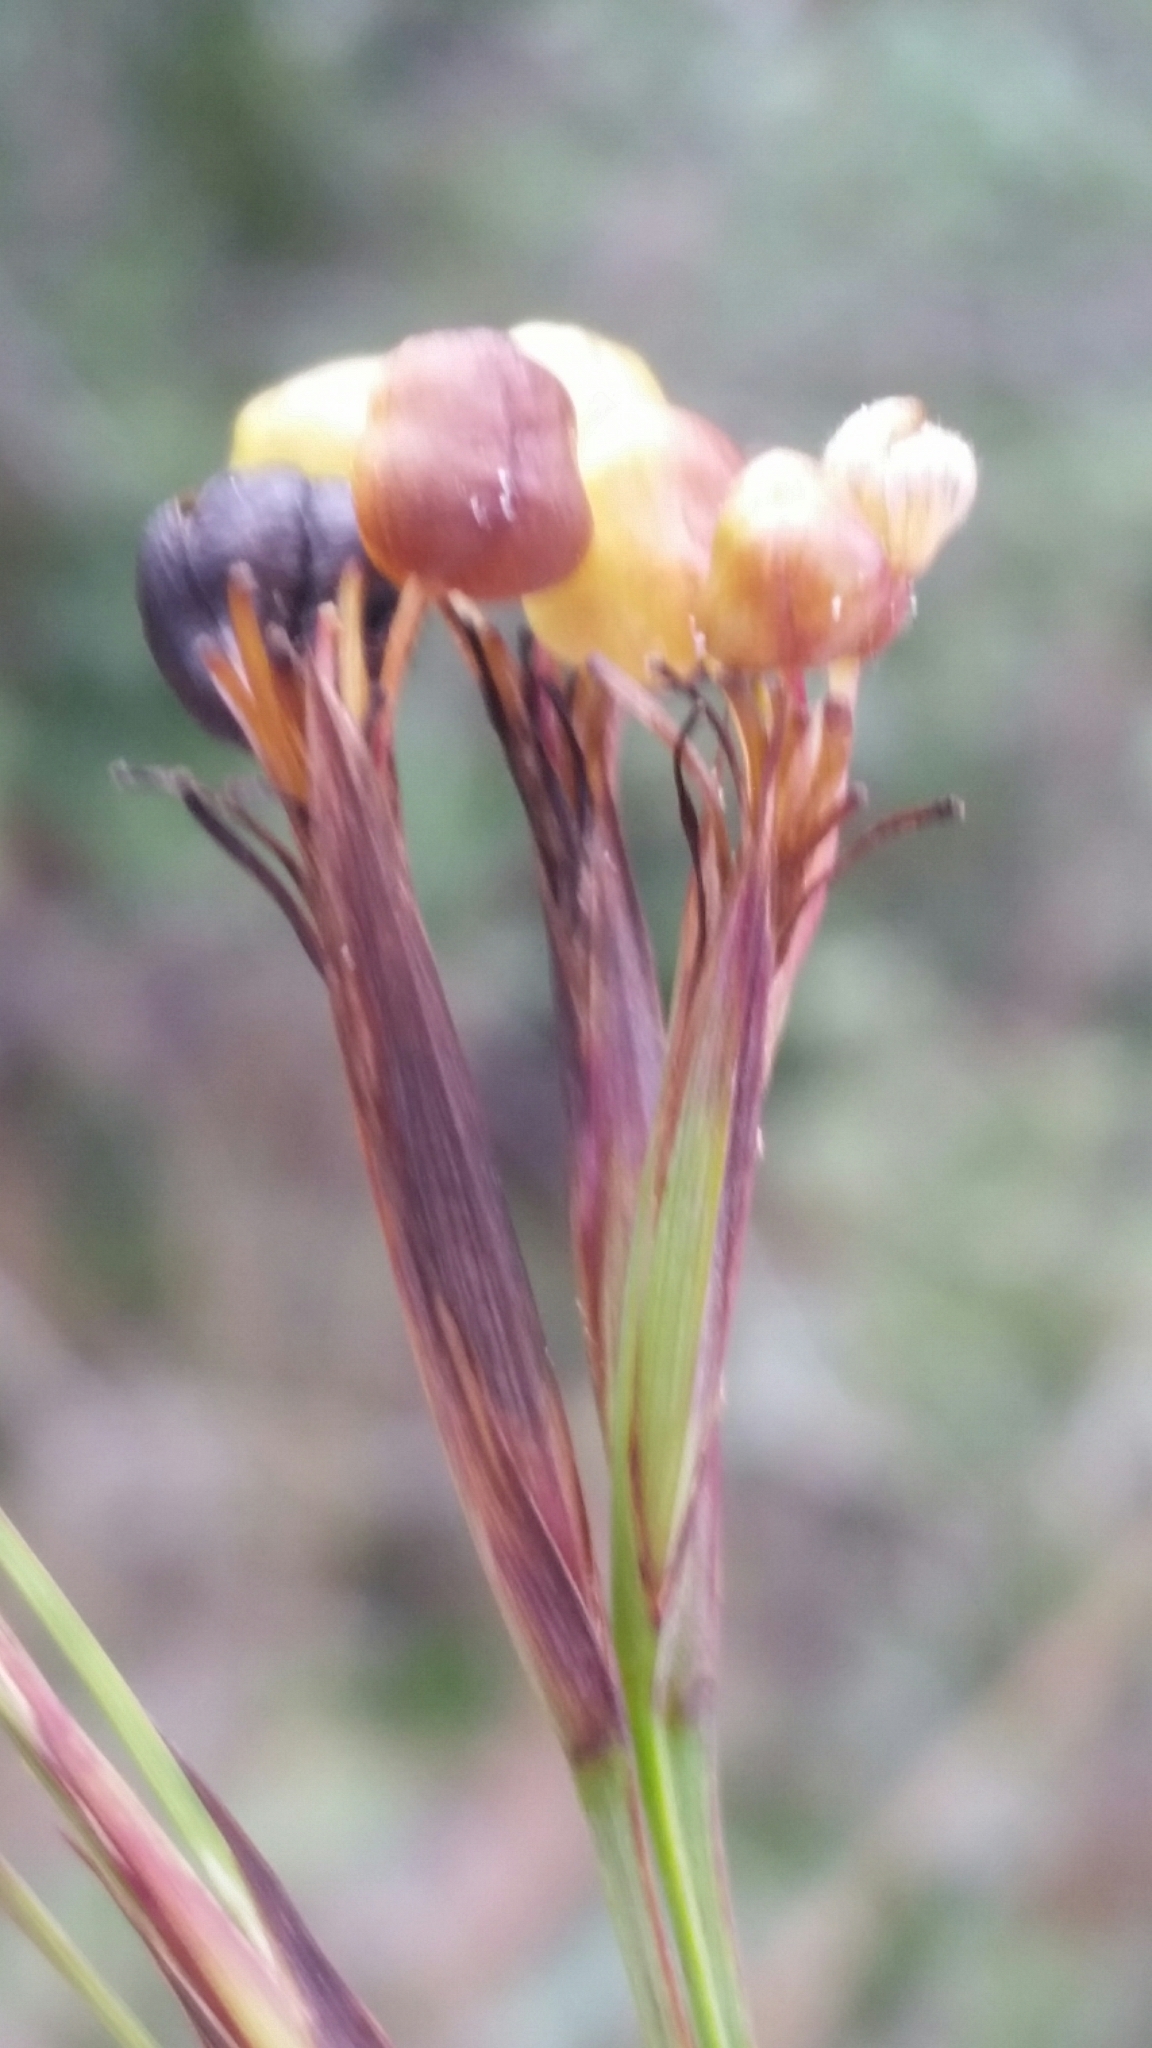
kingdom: Plantae
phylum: Tracheophyta
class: Liliopsida
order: Asparagales
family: Iridaceae
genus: Sisyrinchium
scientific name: Sisyrinchium xerophyllum
